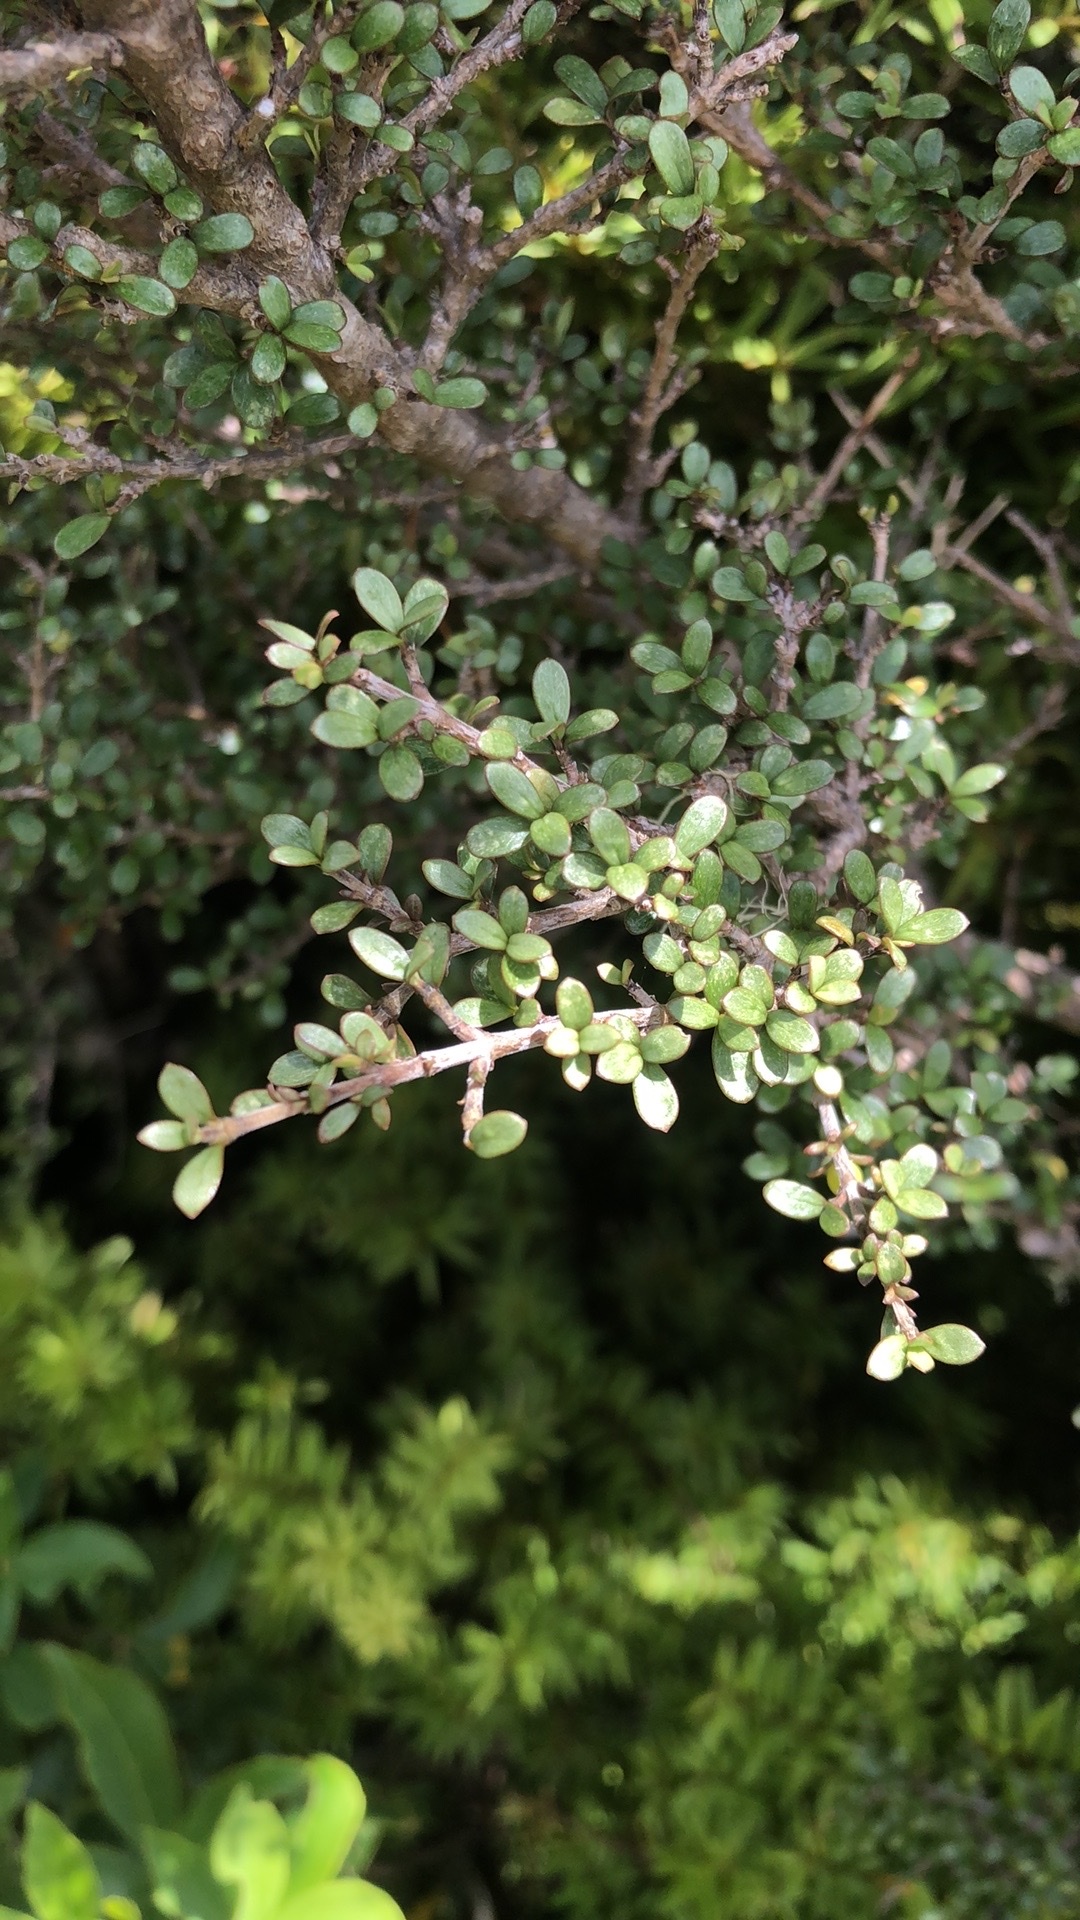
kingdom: Plantae
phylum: Tracheophyta
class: Magnoliopsida
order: Gentianales
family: Rubiaceae
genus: Coprosma
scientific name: Coprosma dumosa
